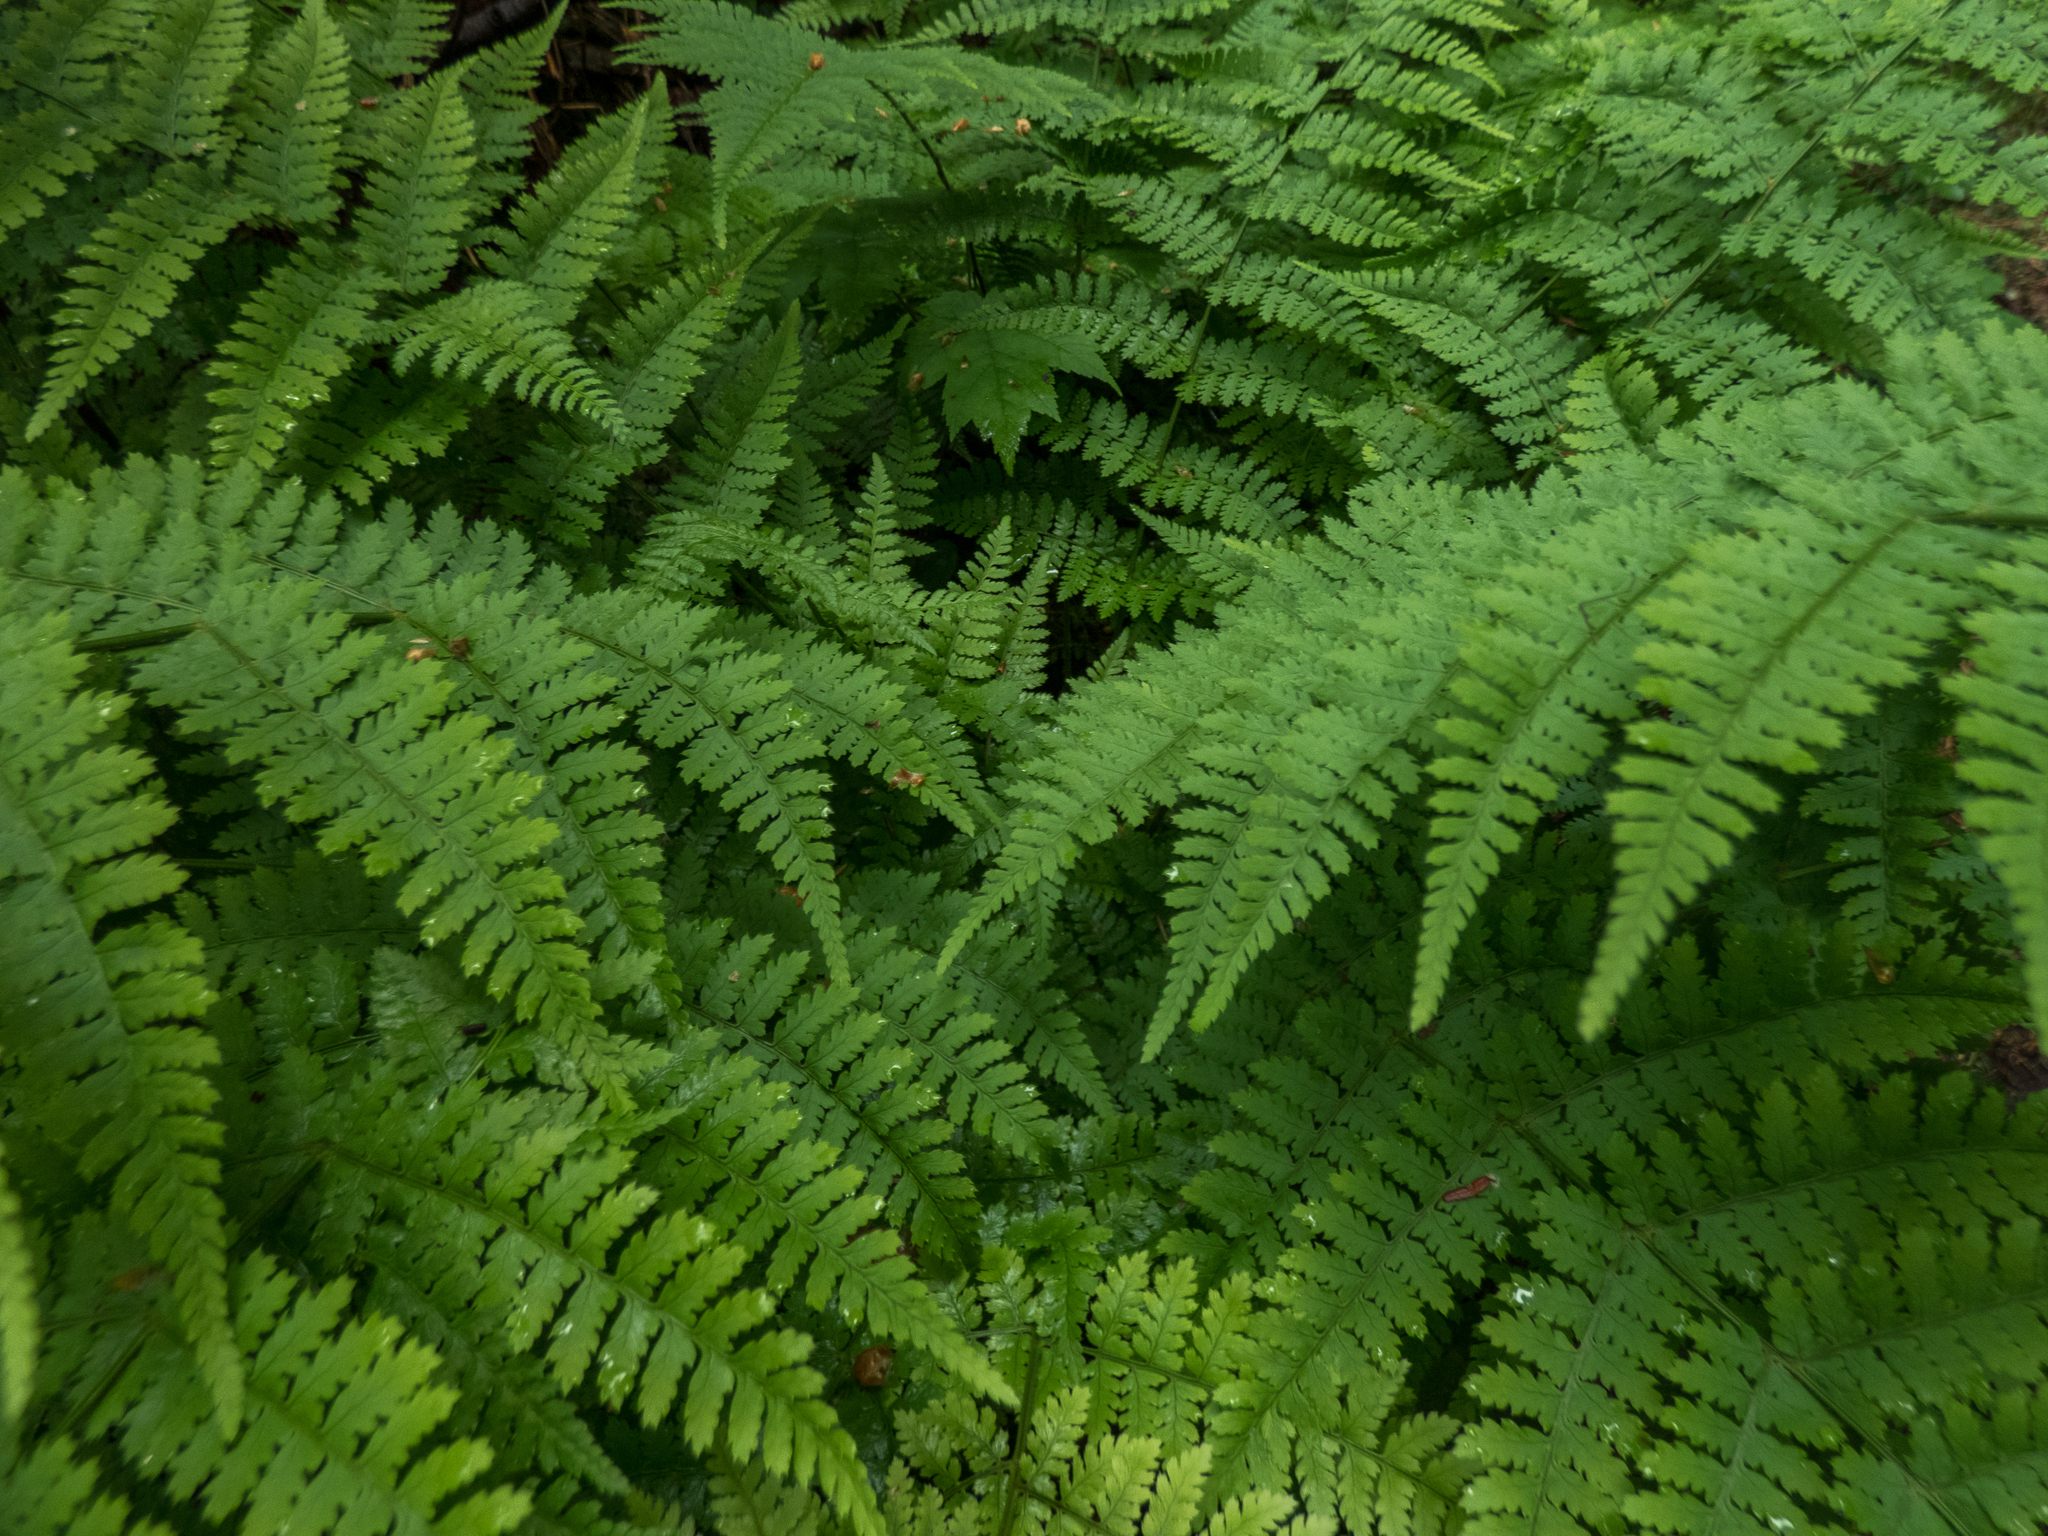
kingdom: Plantae
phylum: Tracheophyta
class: Polypodiopsida
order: Polypodiales
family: Dryopteridaceae
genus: Dryopteris
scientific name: Dryopteris intermedia
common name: Evergreen wood fern
